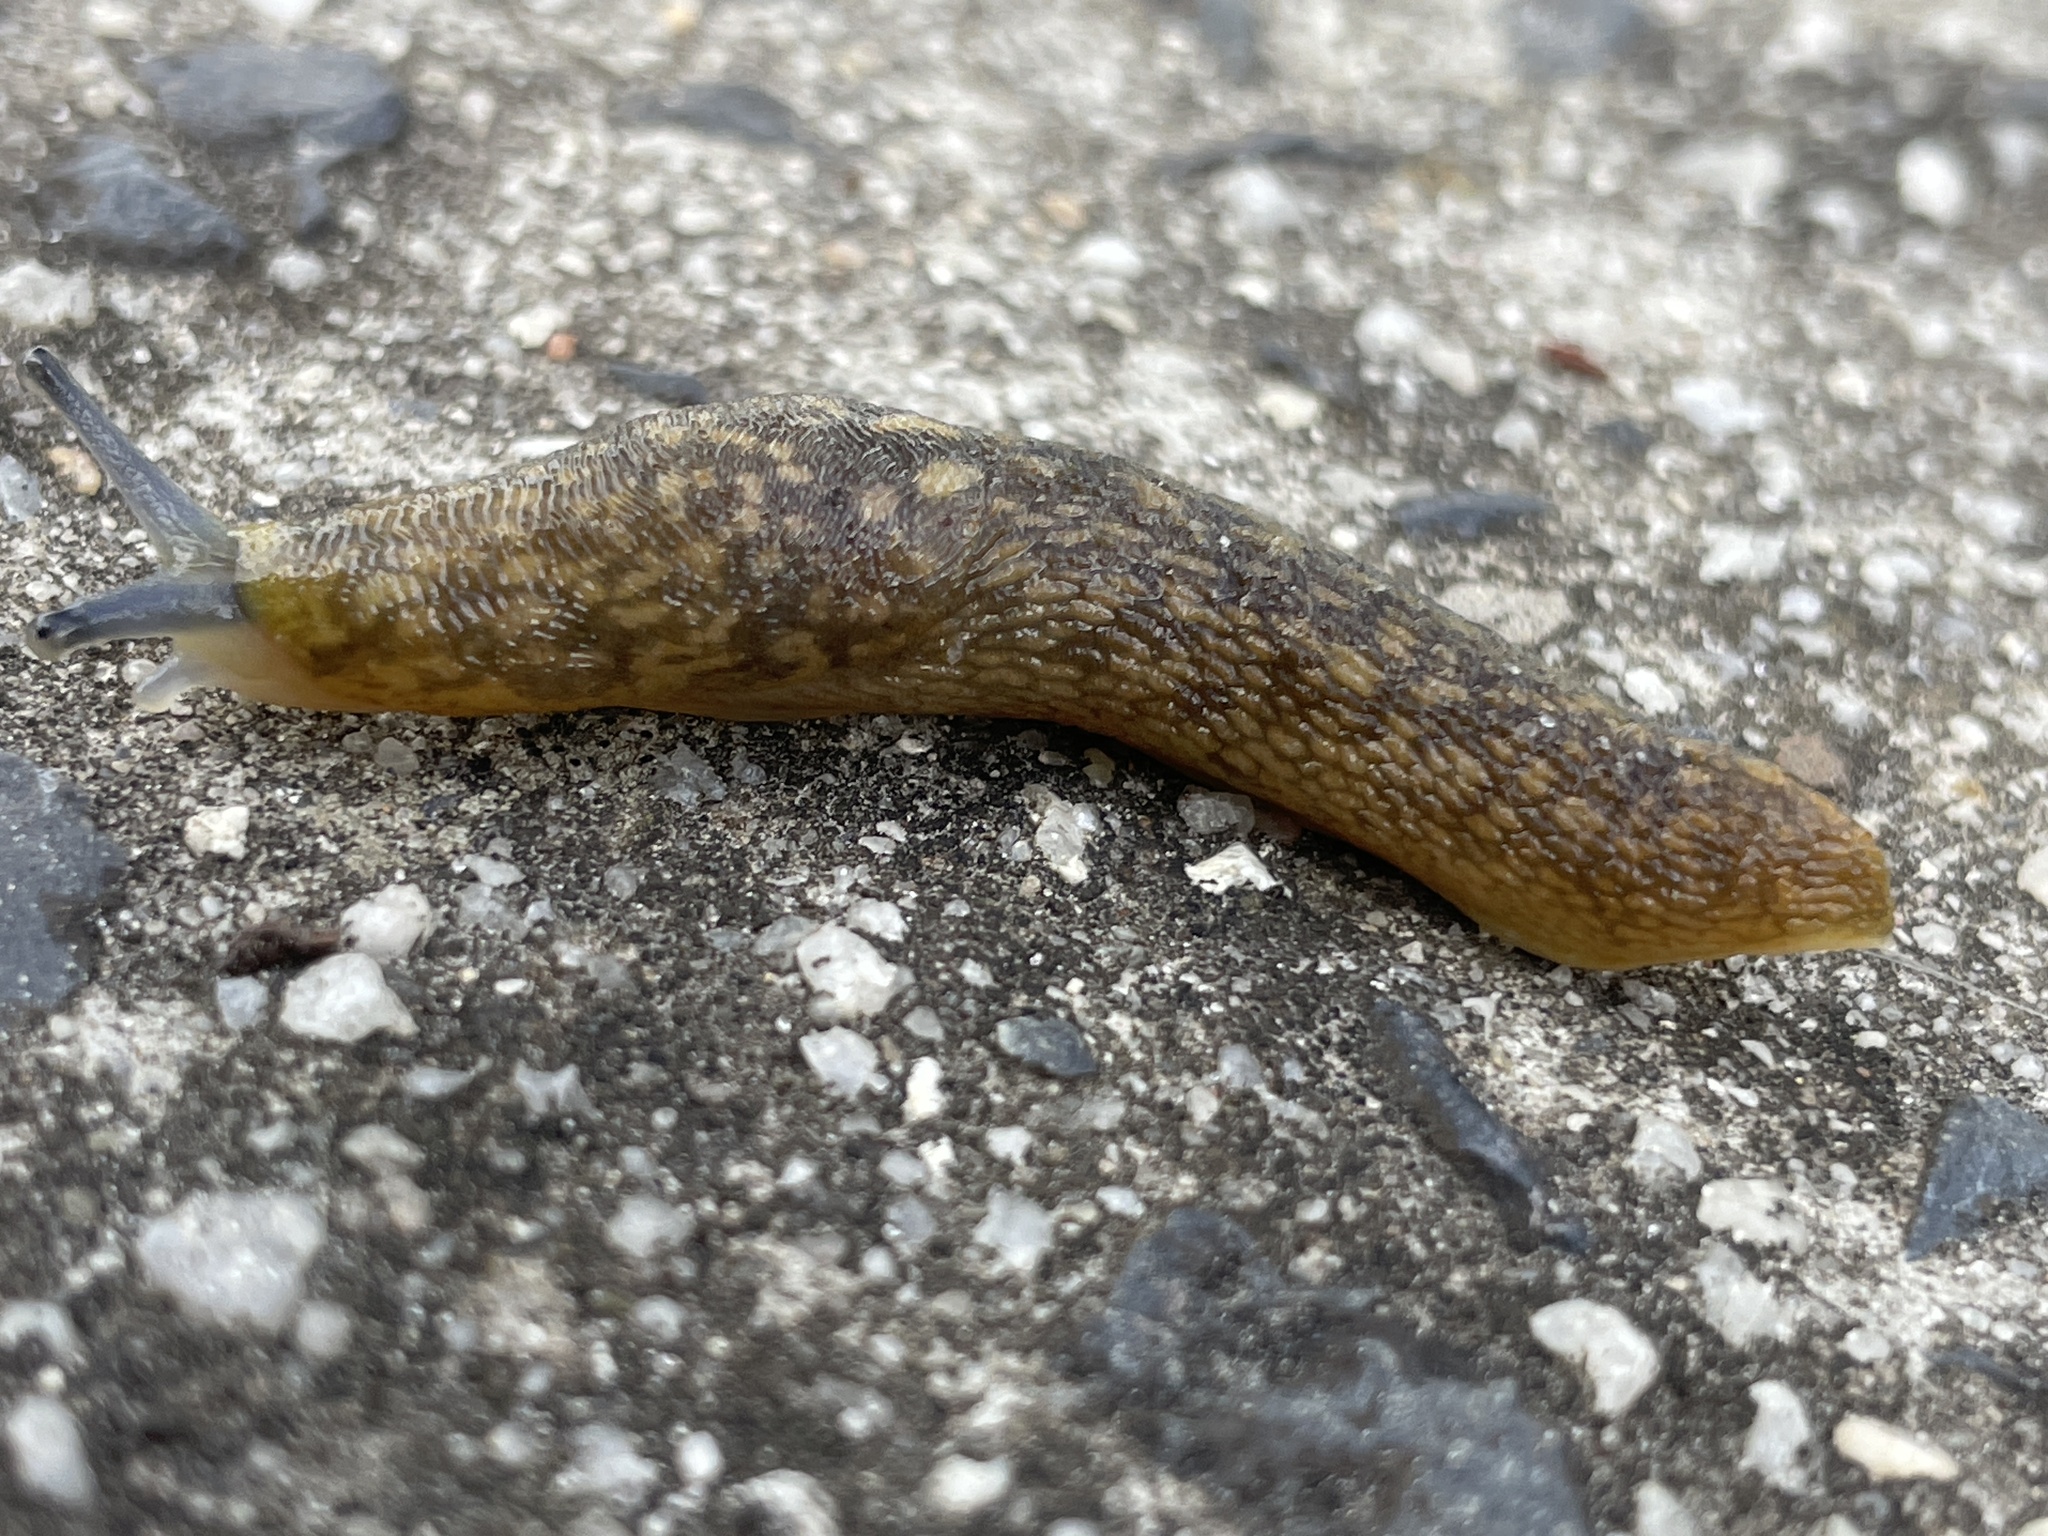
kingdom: Animalia
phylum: Mollusca
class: Gastropoda
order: Stylommatophora
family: Limacidae
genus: Limacus
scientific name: Limacus flavus
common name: Yellow gardenslug
